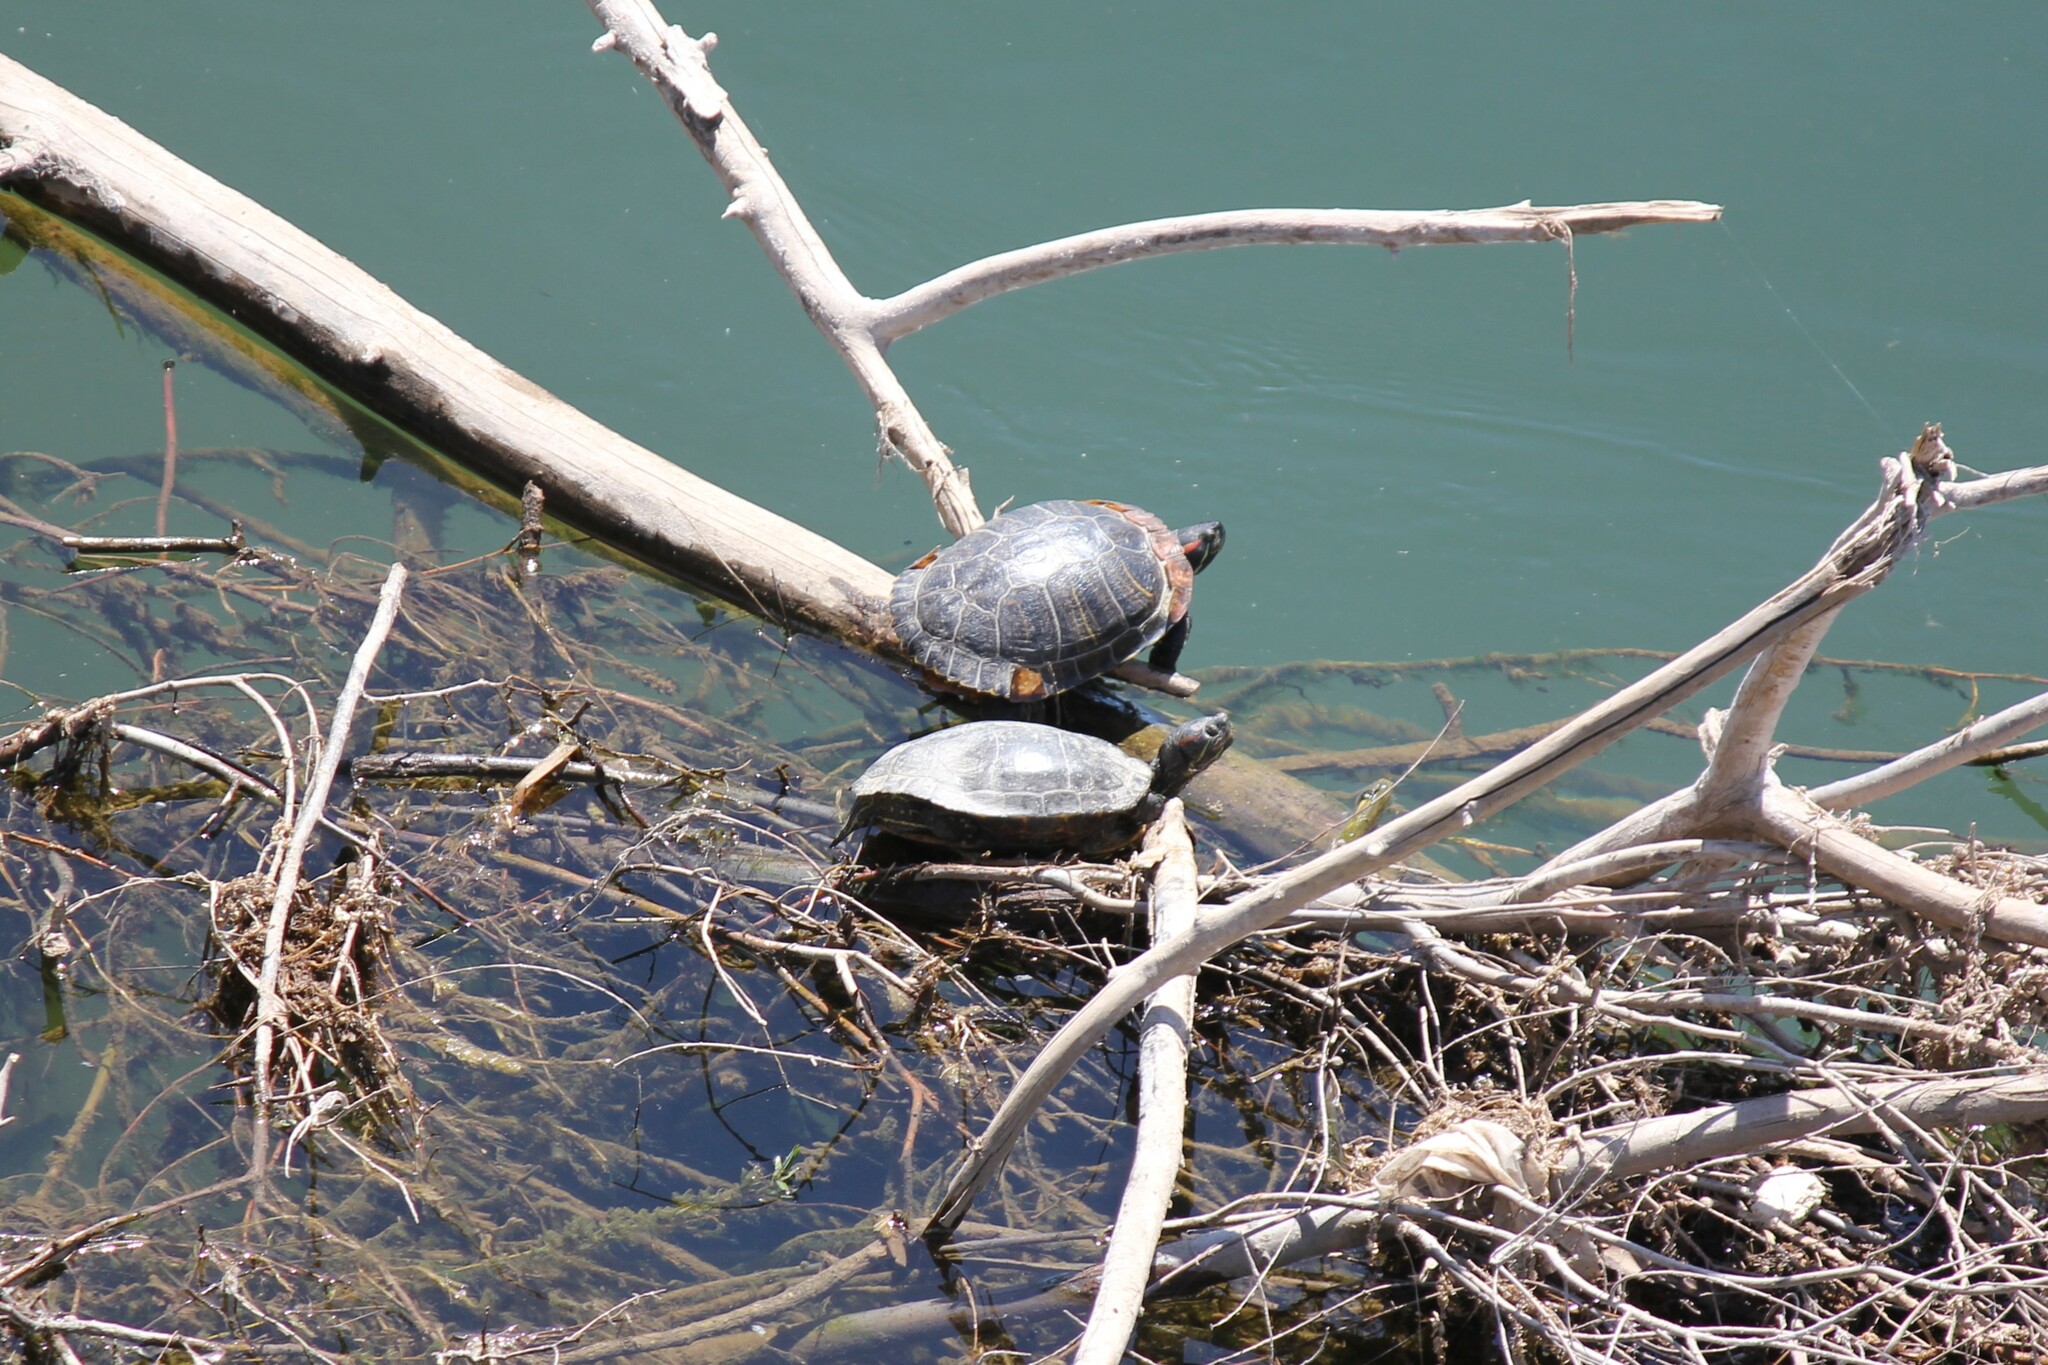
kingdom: Animalia
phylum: Chordata
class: Testudines
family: Emydidae
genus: Trachemys
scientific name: Trachemys scripta
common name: Slider
